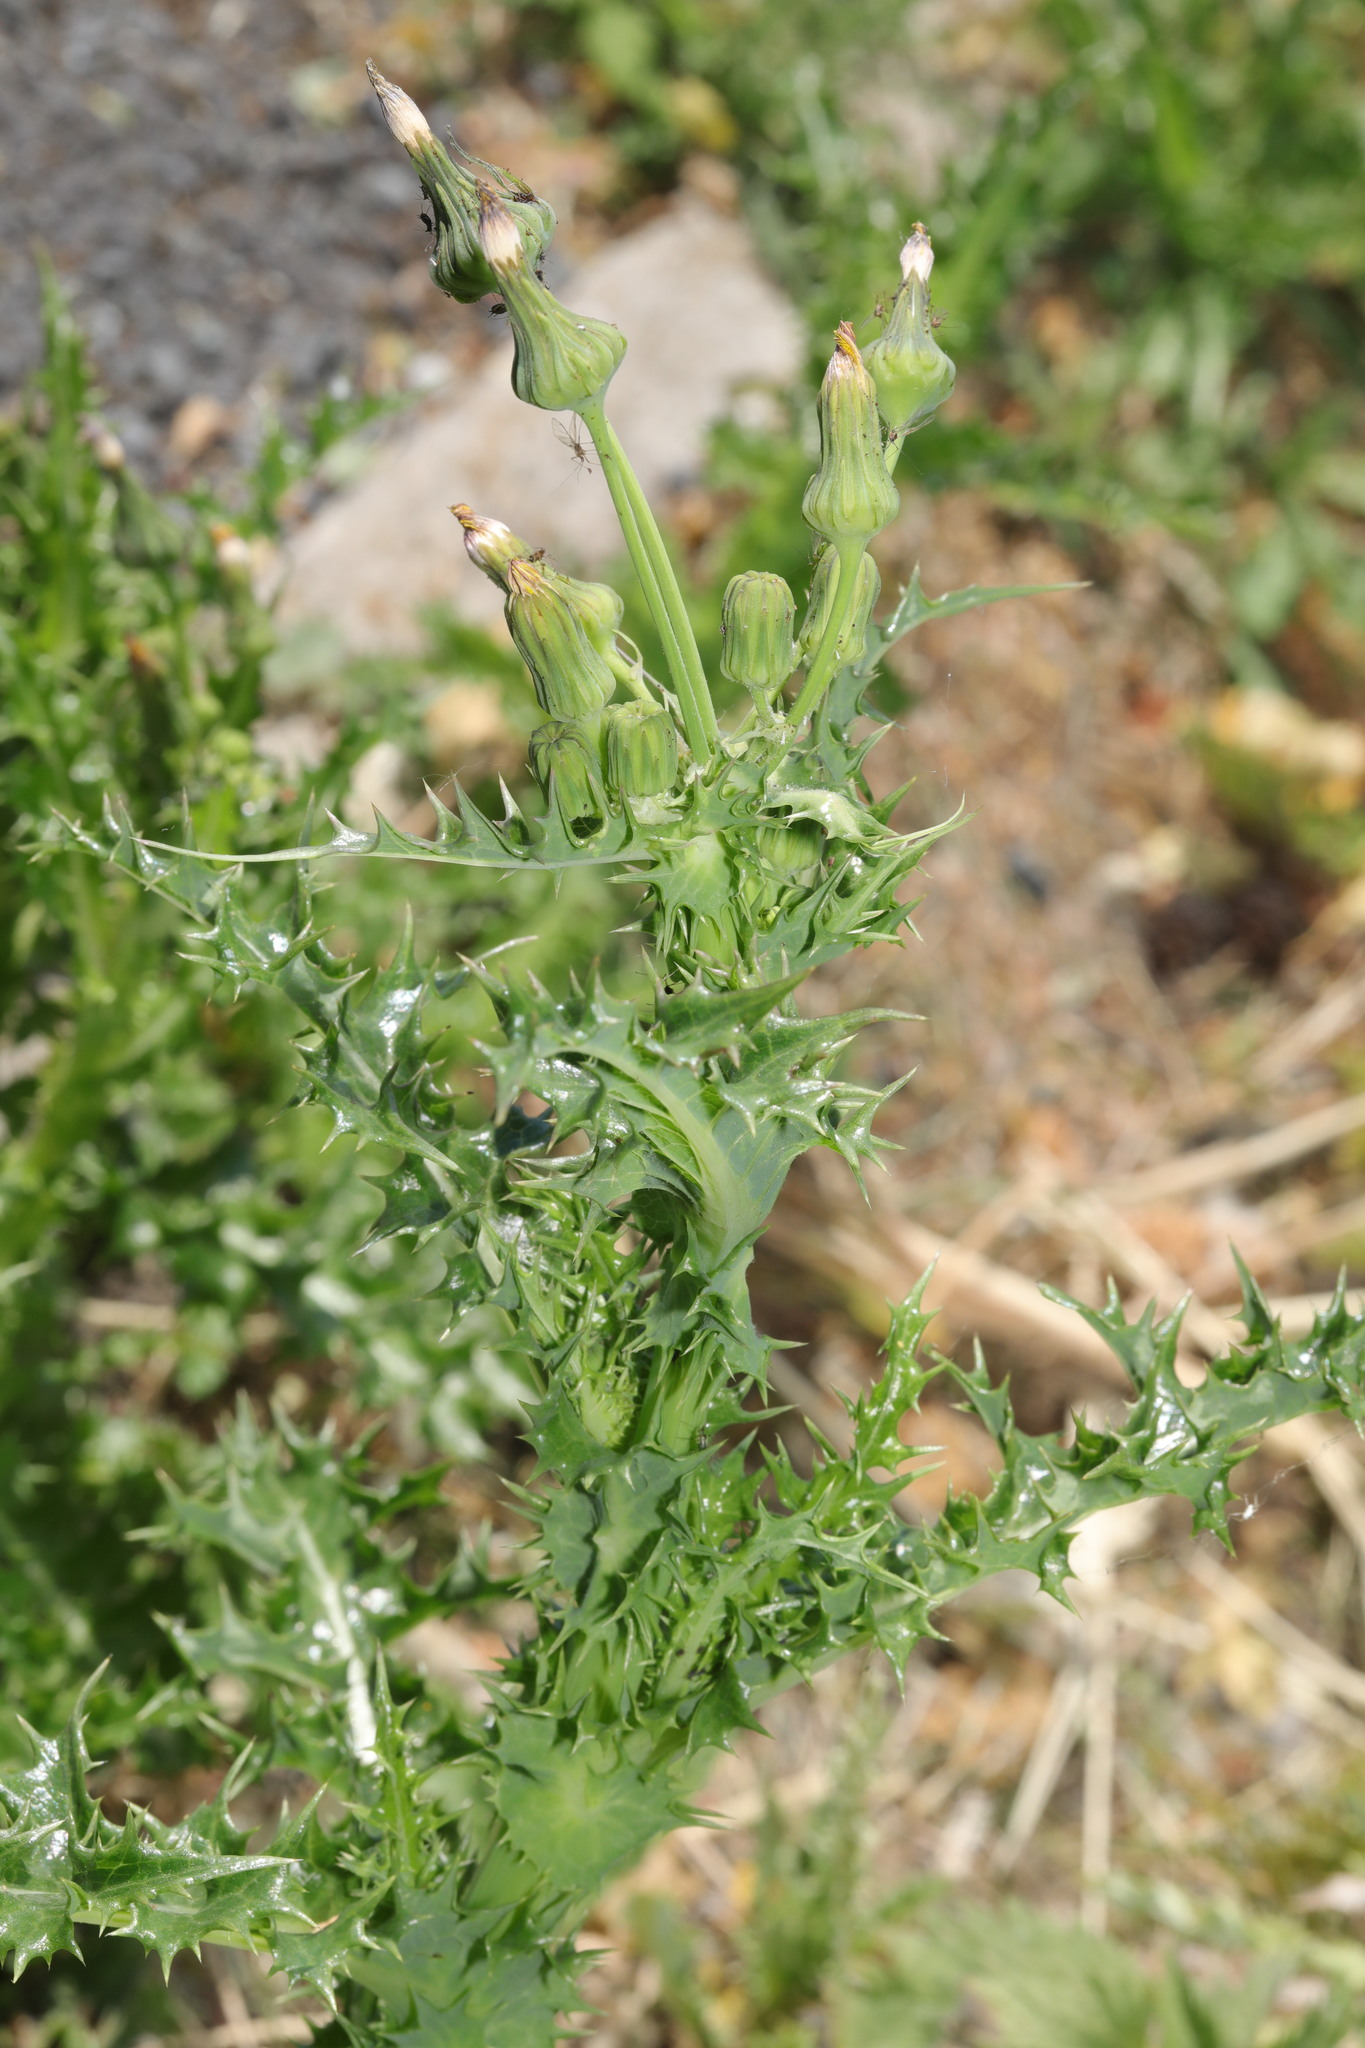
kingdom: Plantae
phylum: Tracheophyta
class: Magnoliopsida
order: Asterales
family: Asteraceae
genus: Sonchus
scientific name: Sonchus asper
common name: Prickly sow-thistle
